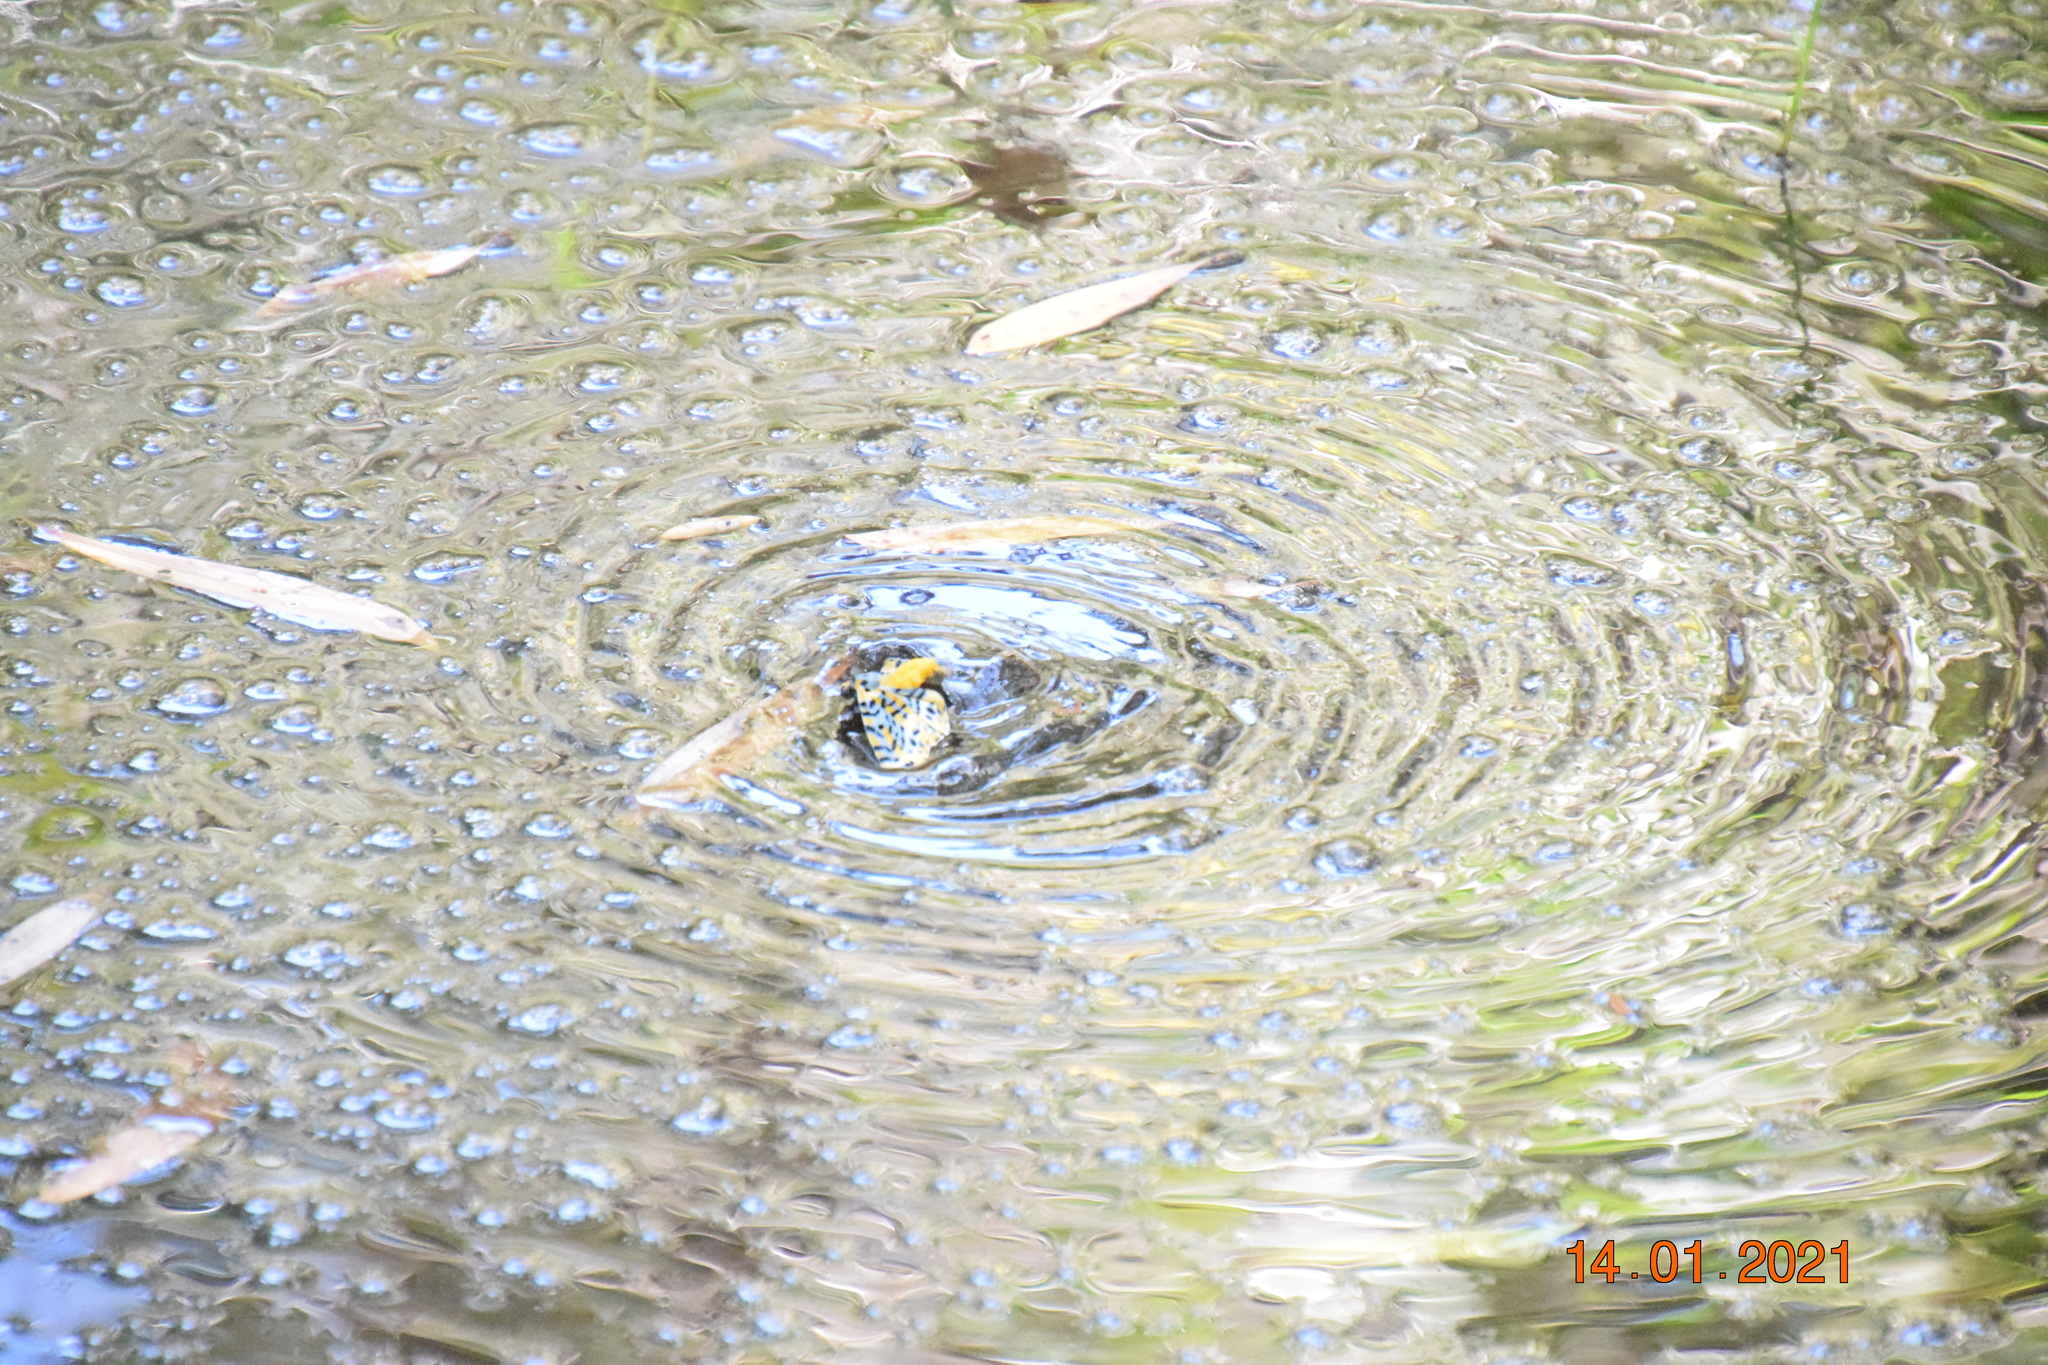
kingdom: Animalia
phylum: Arthropoda
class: Insecta
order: Lepidoptera
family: Geometridae
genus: Bracca
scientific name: Bracca matutinata
